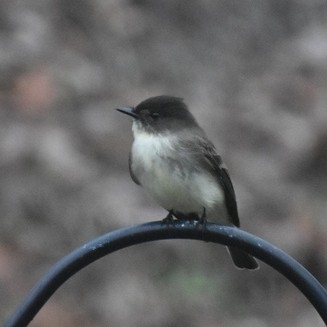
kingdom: Animalia
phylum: Chordata
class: Aves
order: Passeriformes
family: Tyrannidae
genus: Sayornis
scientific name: Sayornis phoebe
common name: Eastern phoebe
